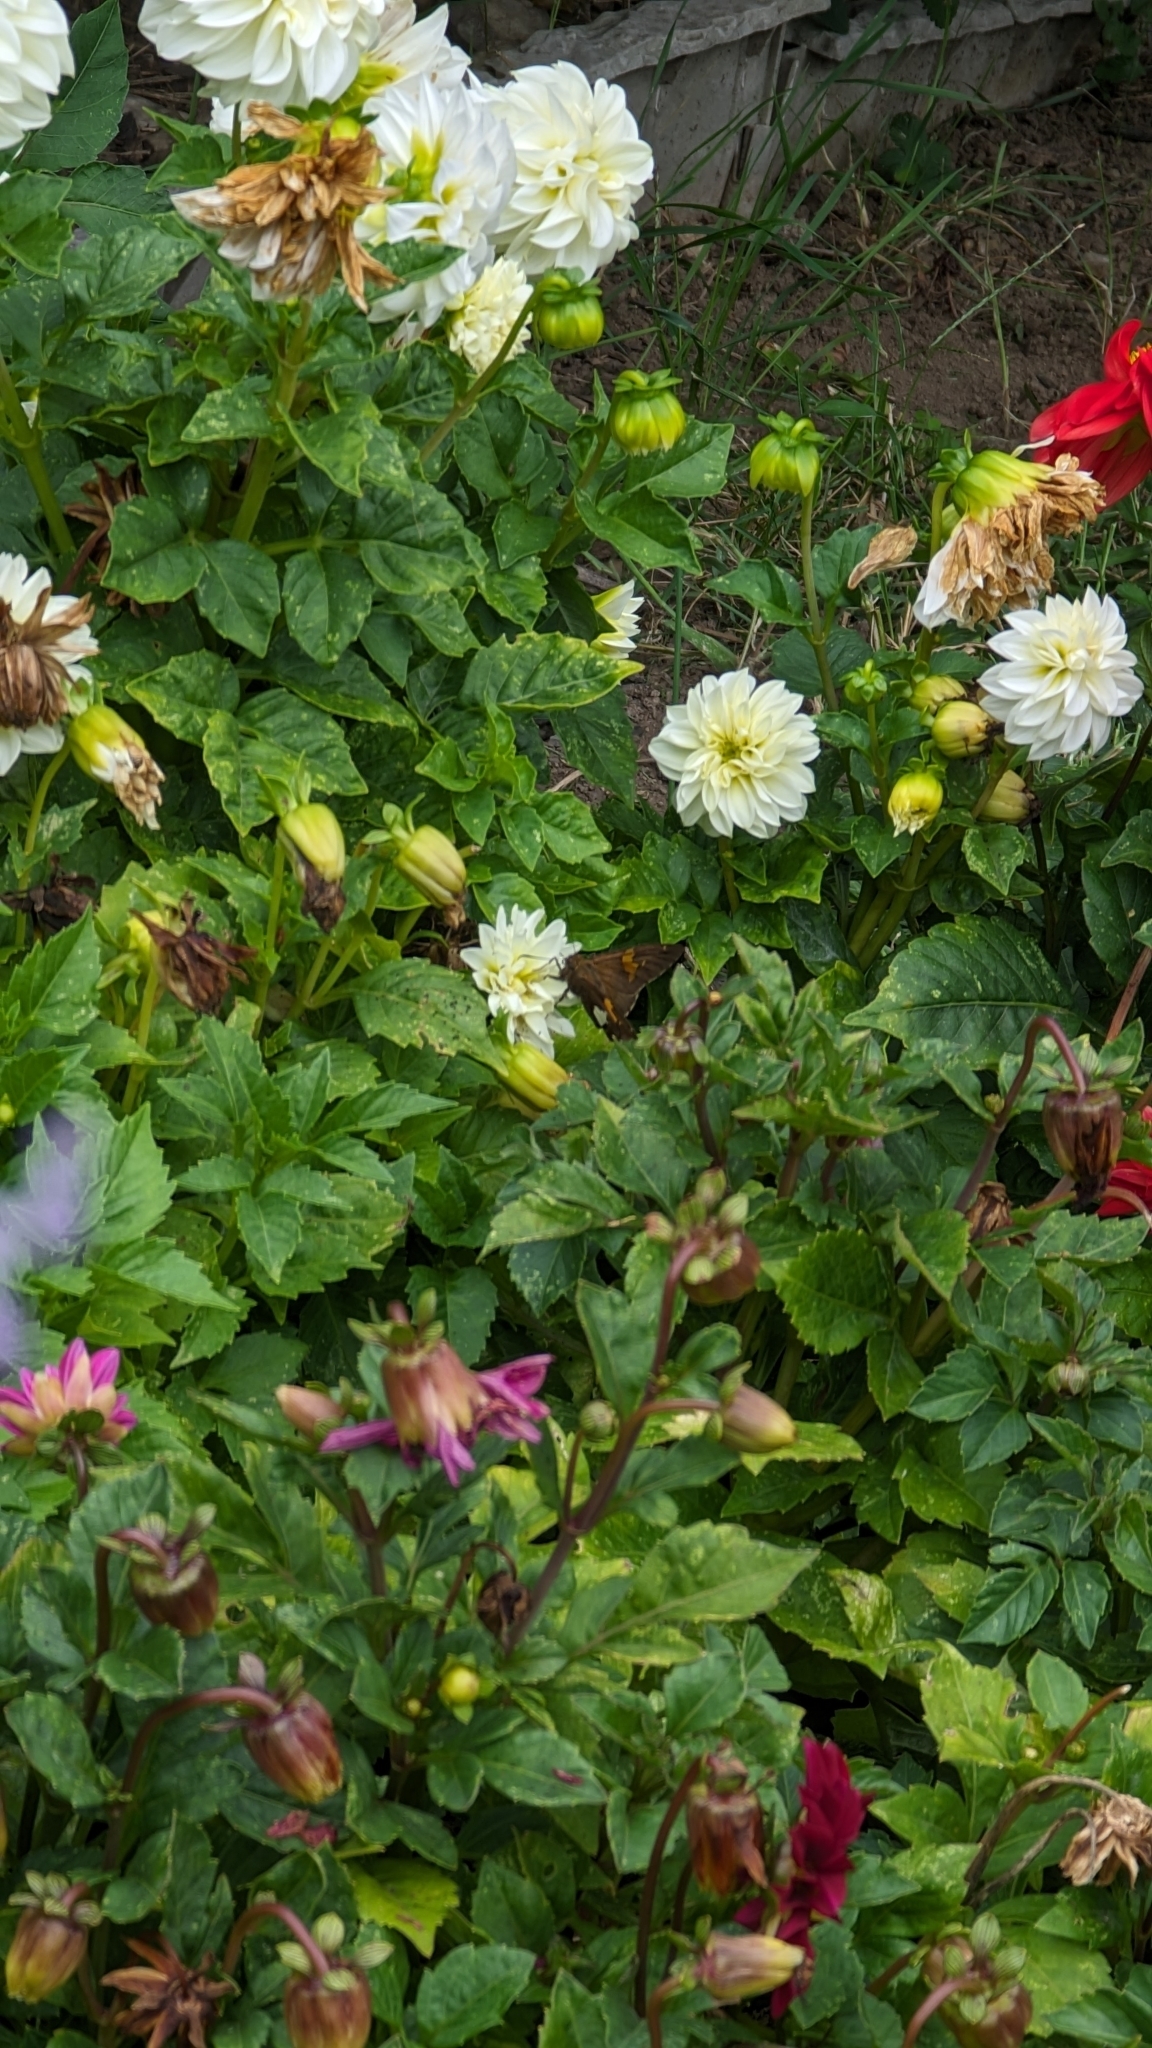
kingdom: Animalia
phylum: Arthropoda
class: Insecta
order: Lepidoptera
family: Hesperiidae
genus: Epargyreus
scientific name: Epargyreus clarus
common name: Silver-spotted skipper
